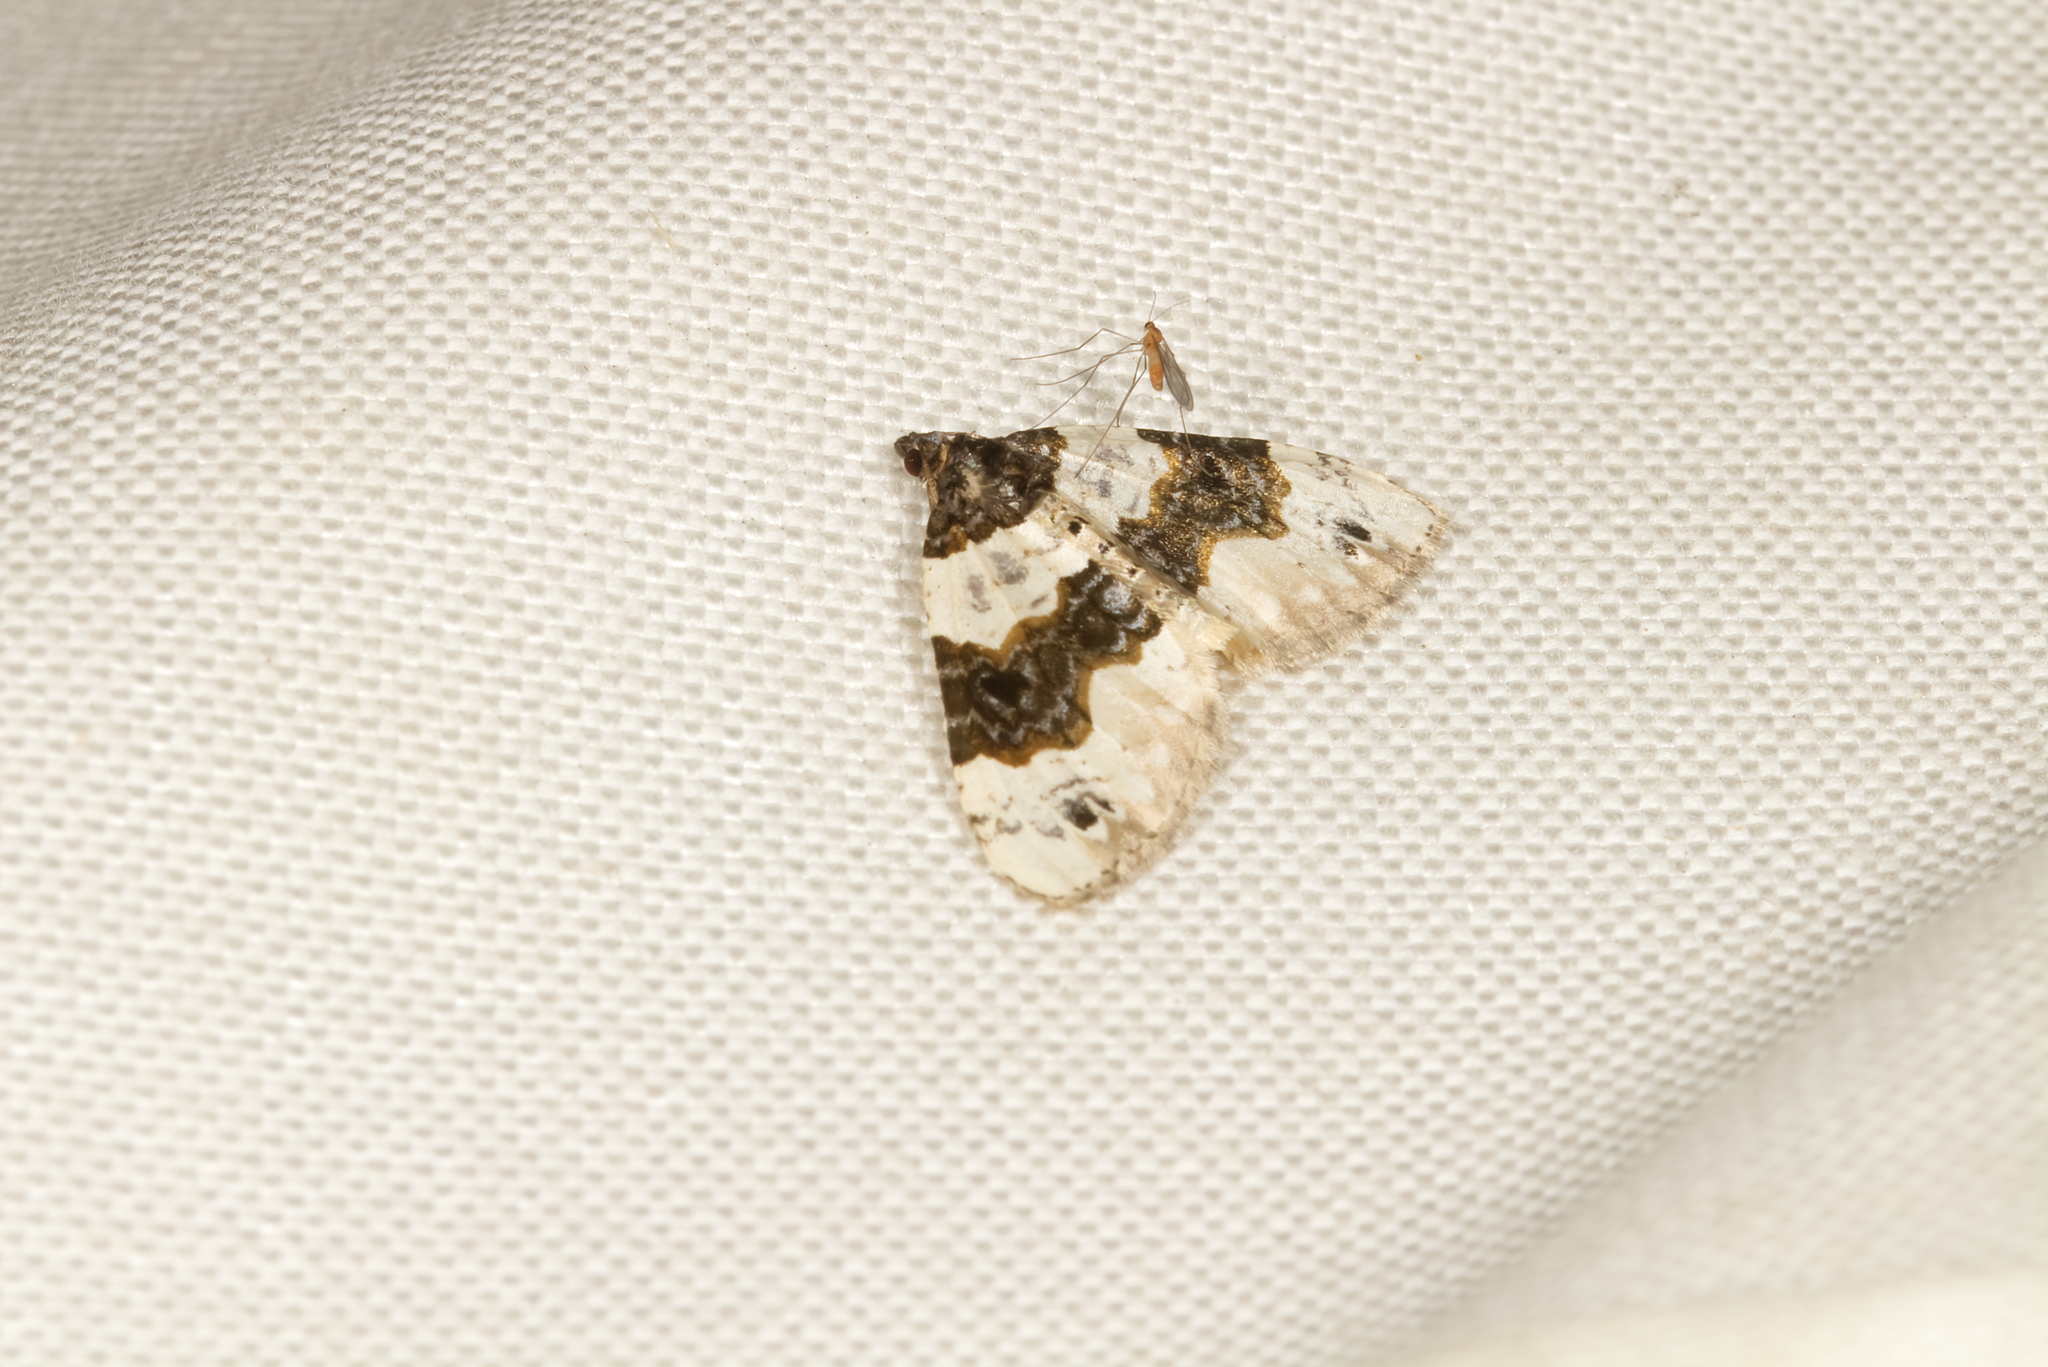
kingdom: Animalia
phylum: Arthropoda
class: Insecta
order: Lepidoptera
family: Geometridae
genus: Cosmorhoe
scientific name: Cosmorhoe ocellata
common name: Purple bar
